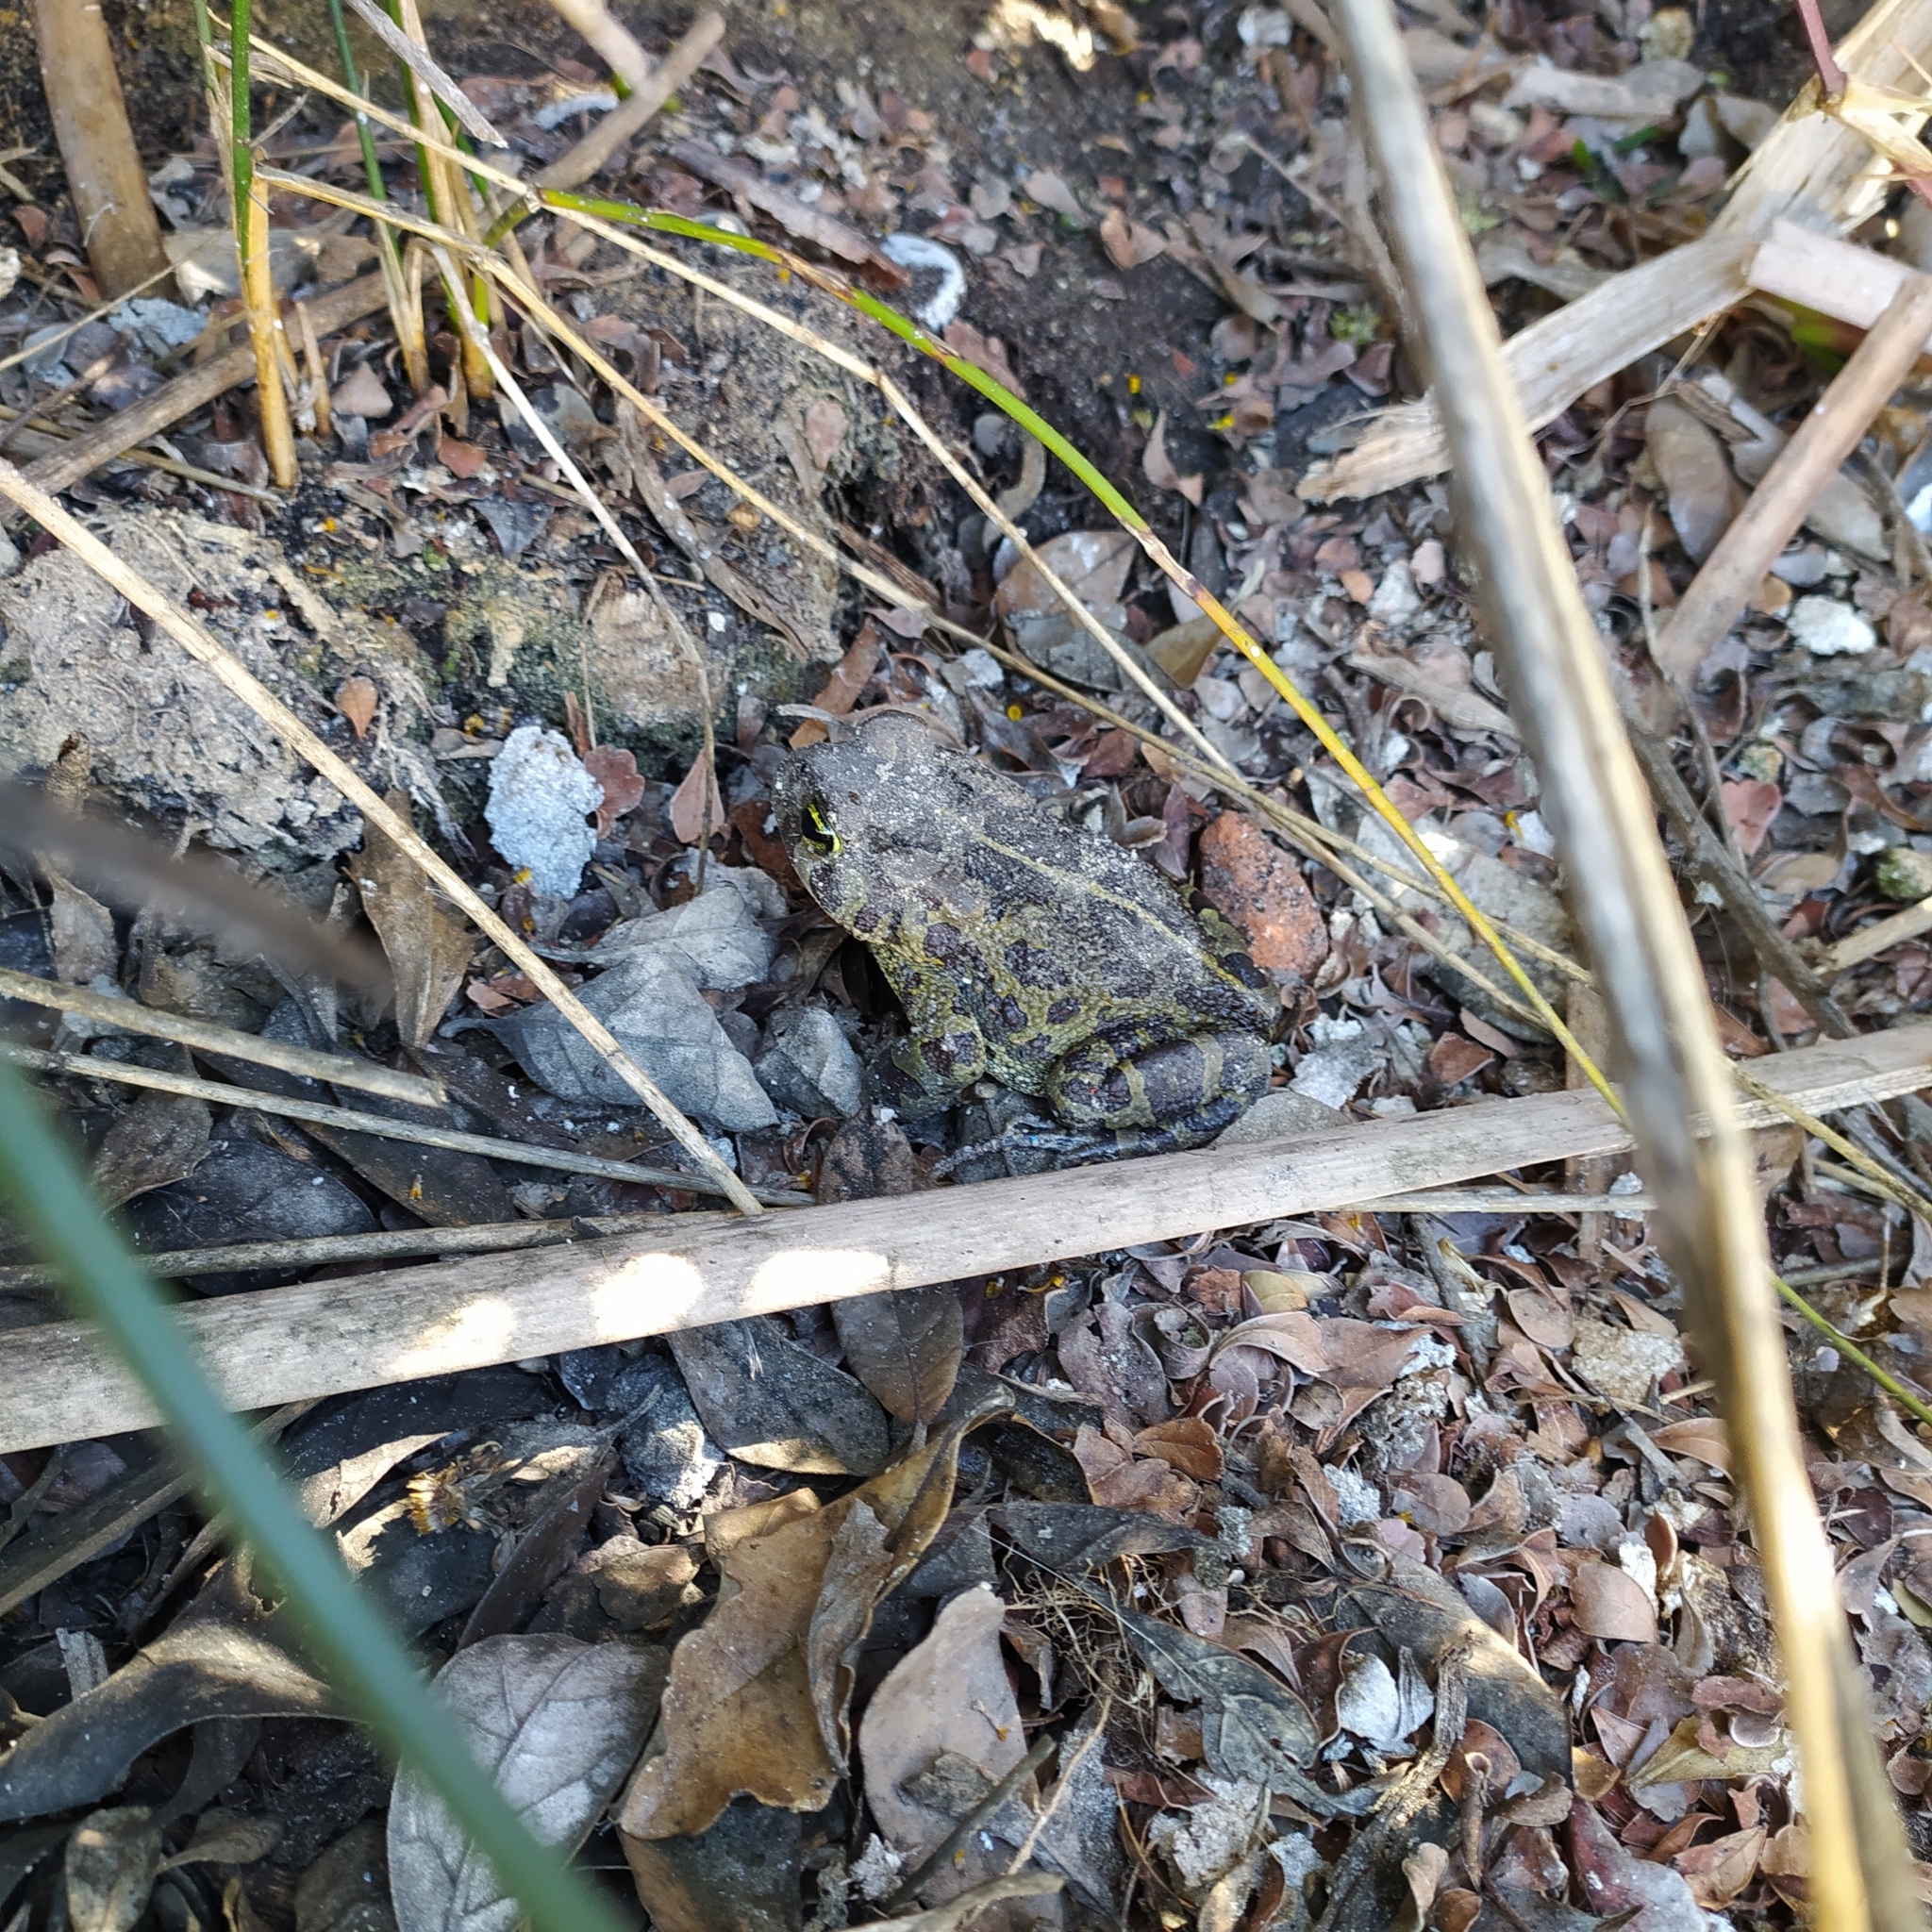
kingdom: Animalia
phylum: Chordata
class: Amphibia
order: Anura
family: Bufonidae
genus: Sclerophrys
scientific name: Sclerophrys pantherina
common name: Panther toad
